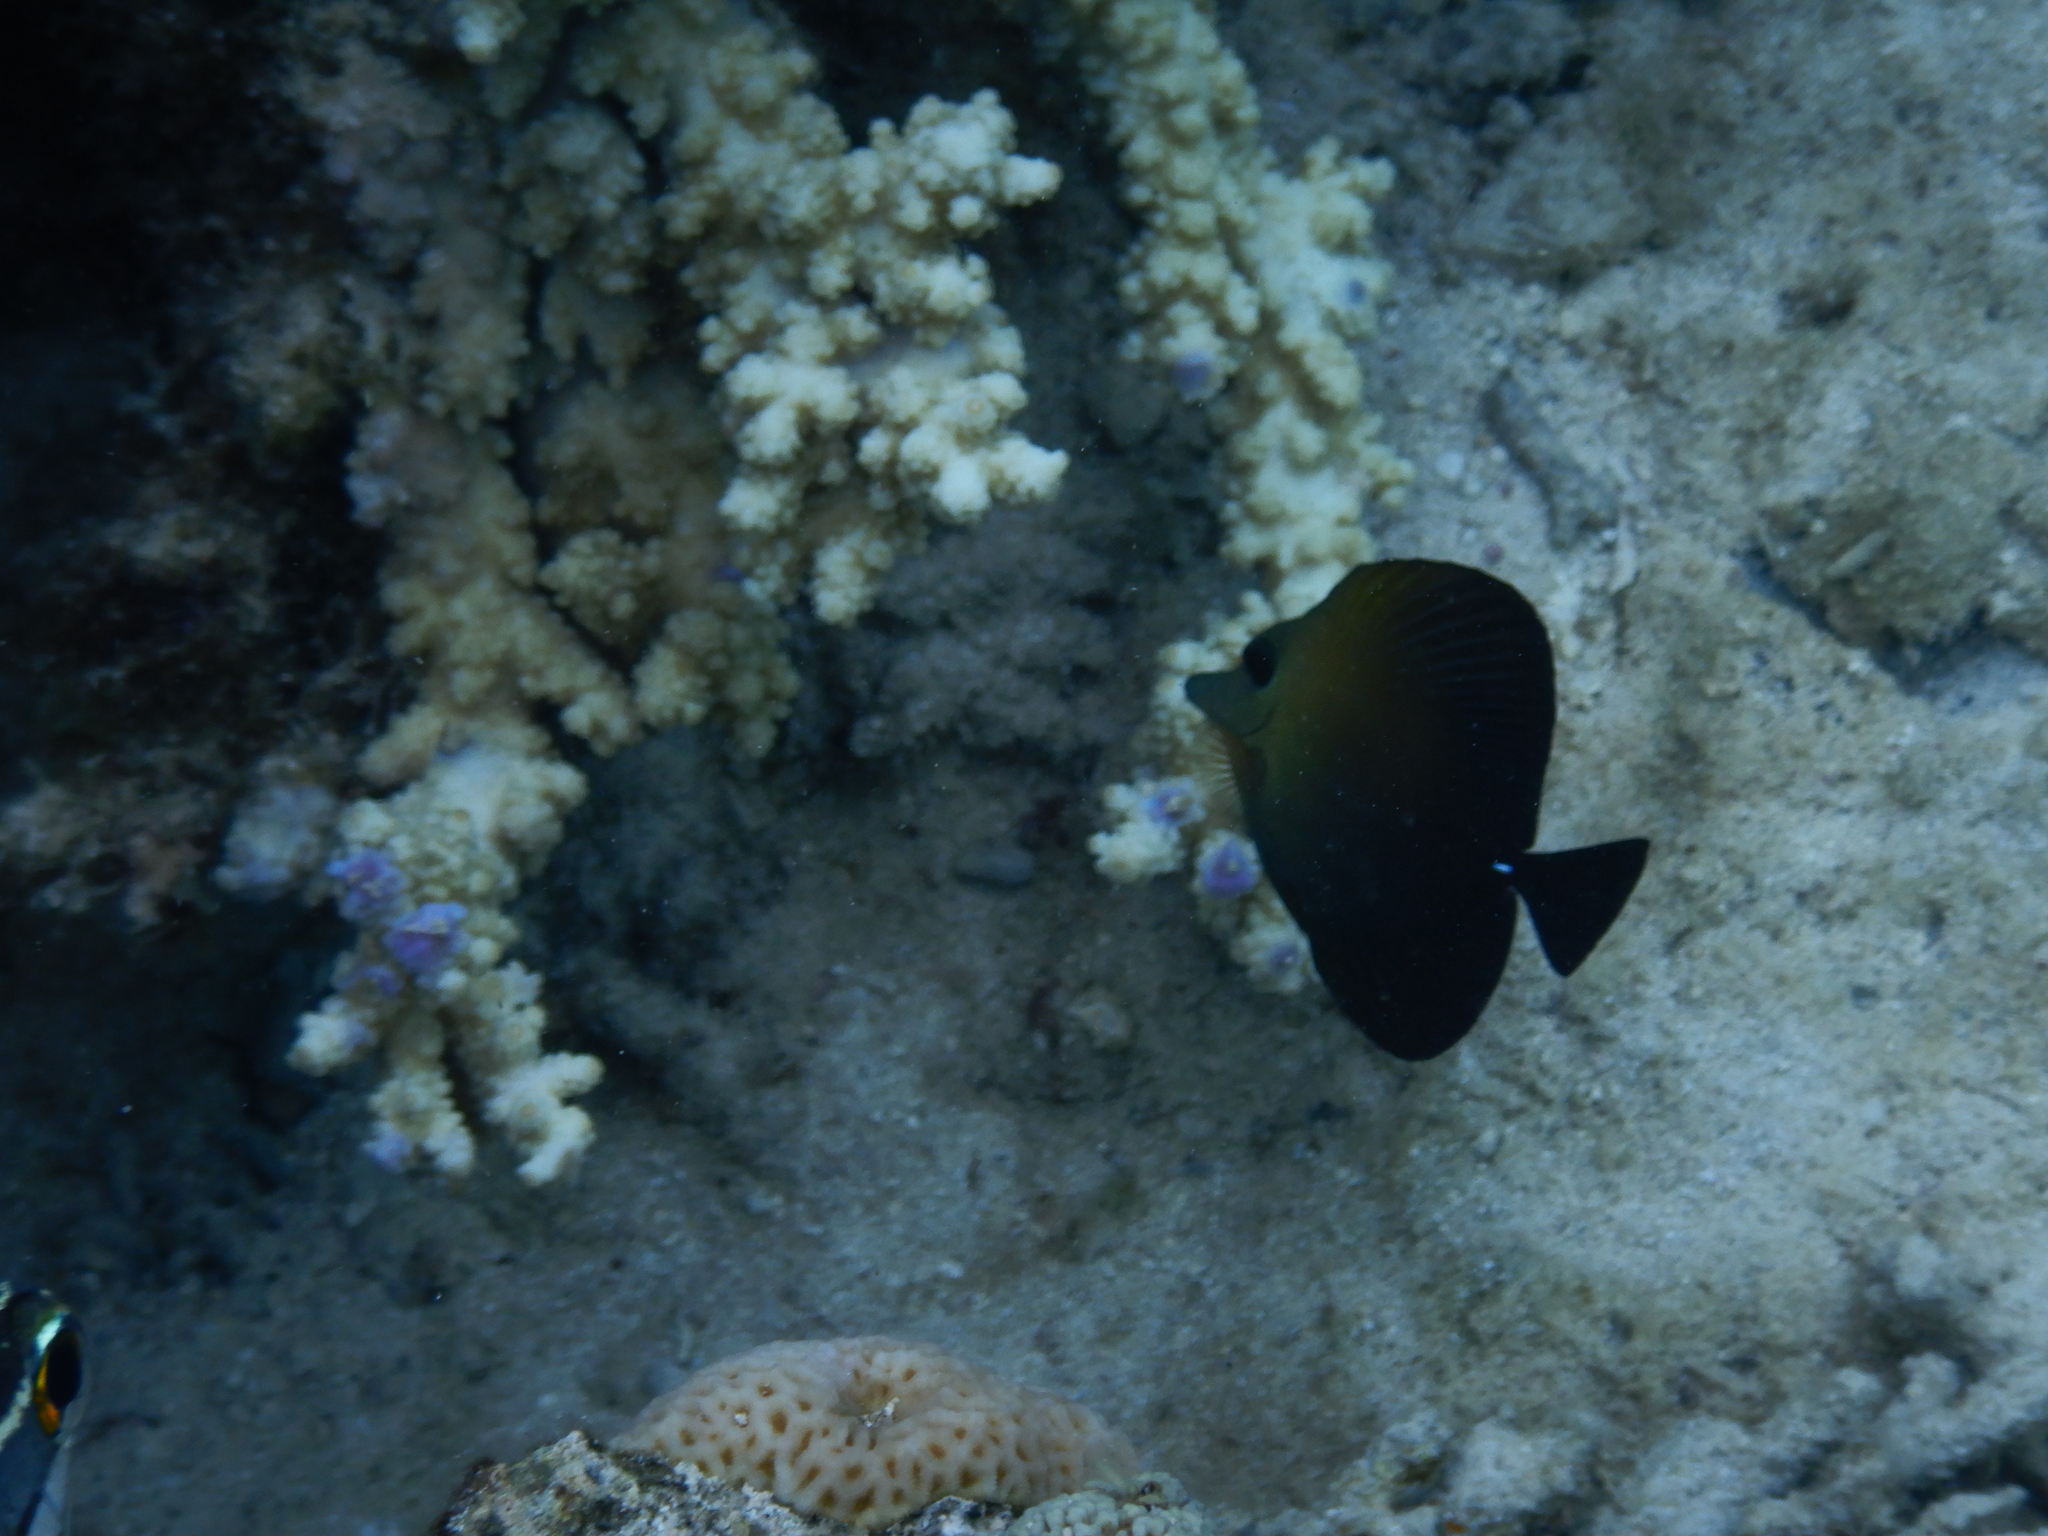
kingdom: Animalia
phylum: Chordata
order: Perciformes
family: Acanthuridae
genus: Zebrasoma
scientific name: Zebrasoma scopas
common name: Twotone tang
